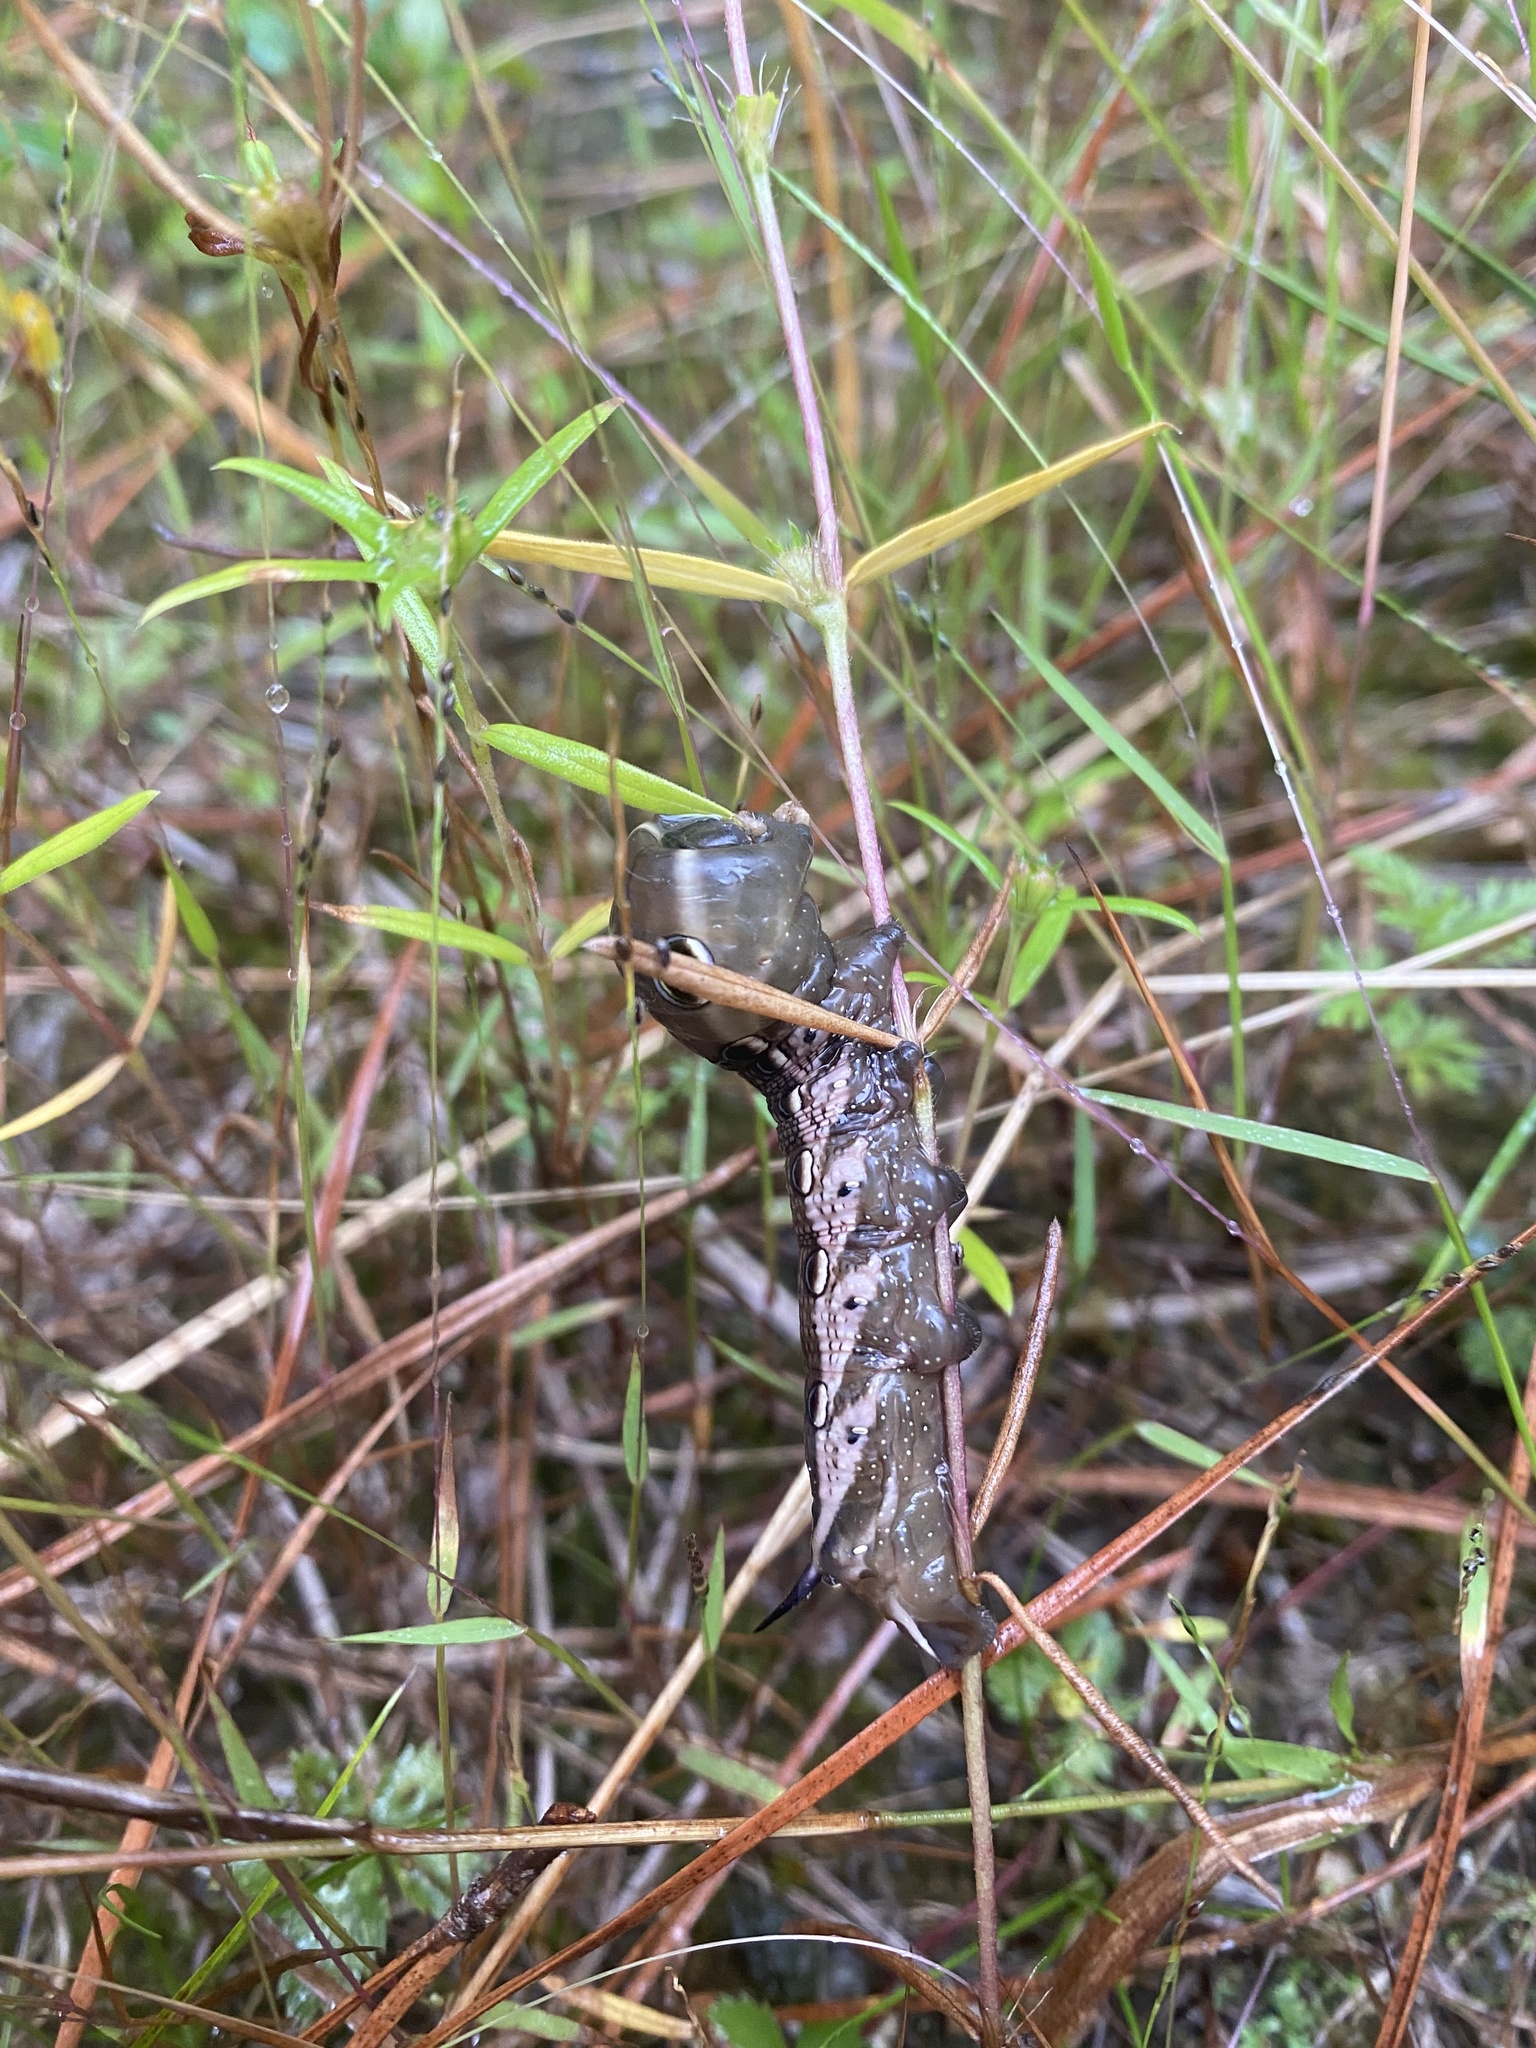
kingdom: Animalia
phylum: Arthropoda
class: Insecta
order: Lepidoptera
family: Sphingidae
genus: Xylophanes
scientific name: Xylophanes tersa
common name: Tersa sphinx
